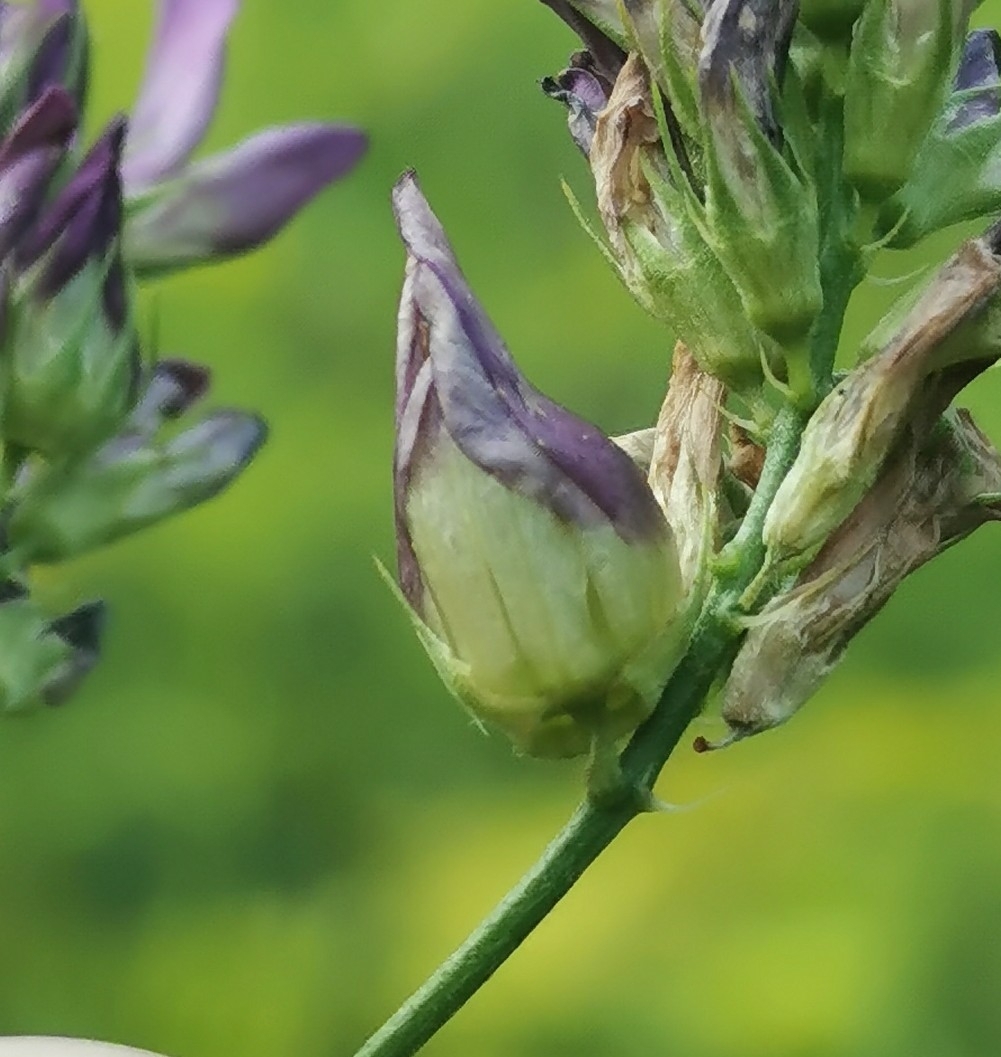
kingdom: Animalia
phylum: Arthropoda
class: Insecta
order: Diptera
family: Cecidomyiidae
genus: Contarinia
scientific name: Contarinia medicaginis
